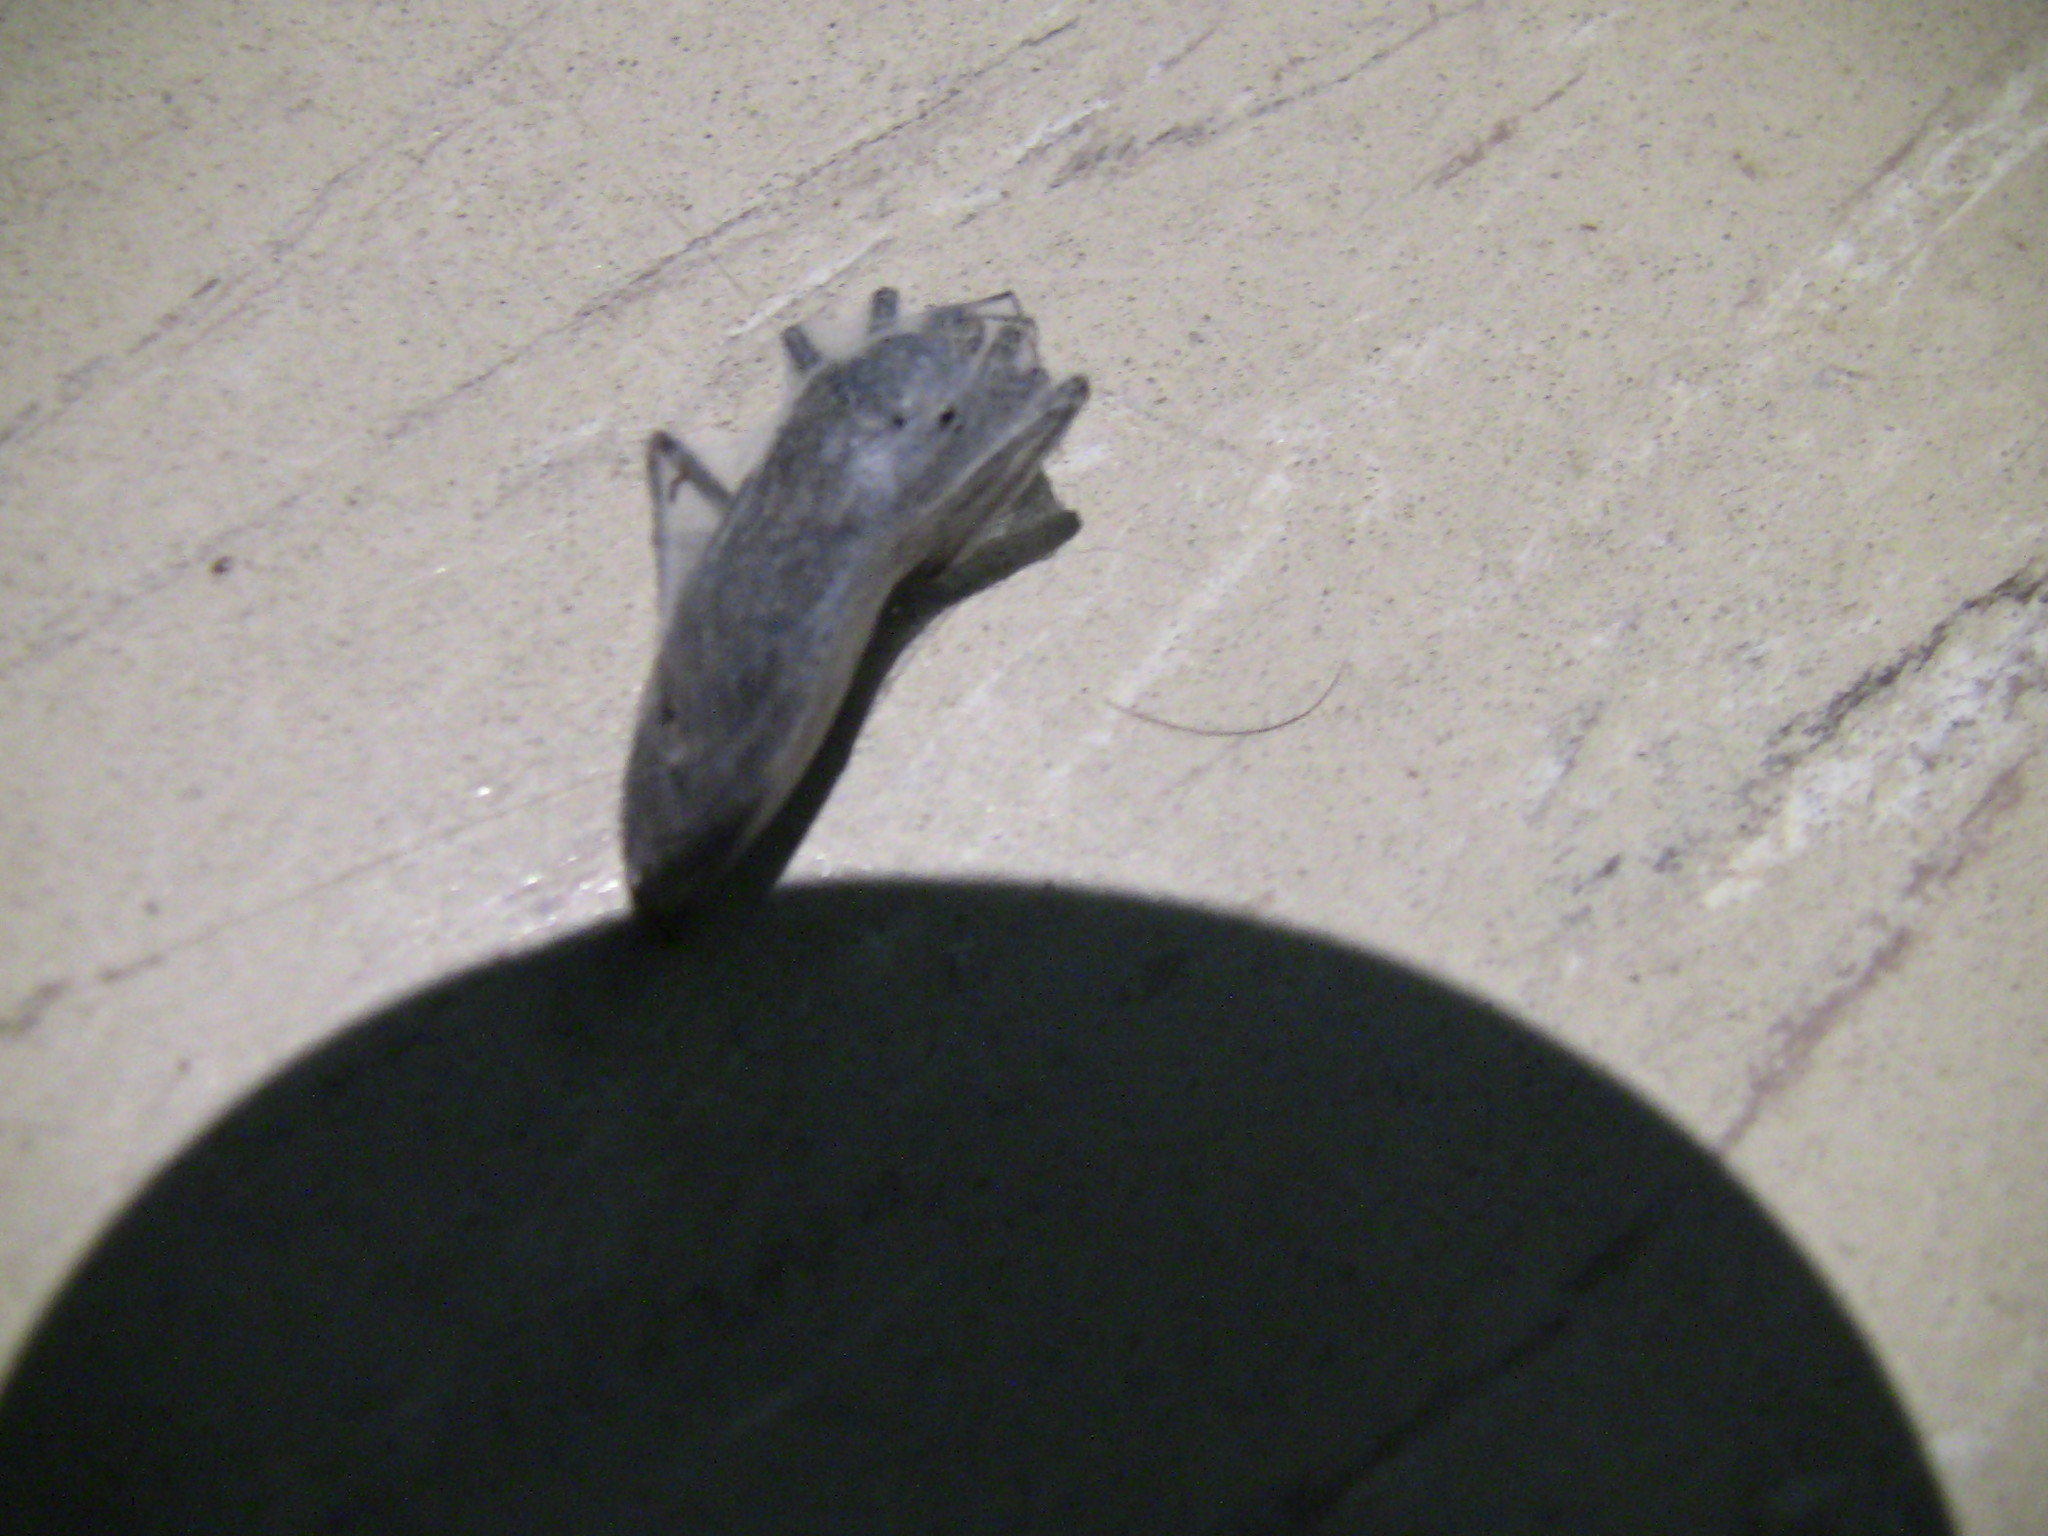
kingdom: Animalia
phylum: Arthropoda
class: Insecta
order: Hemiptera
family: Reduviidae
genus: Reduvius
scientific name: Reduvius personatus
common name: Masked hunter
